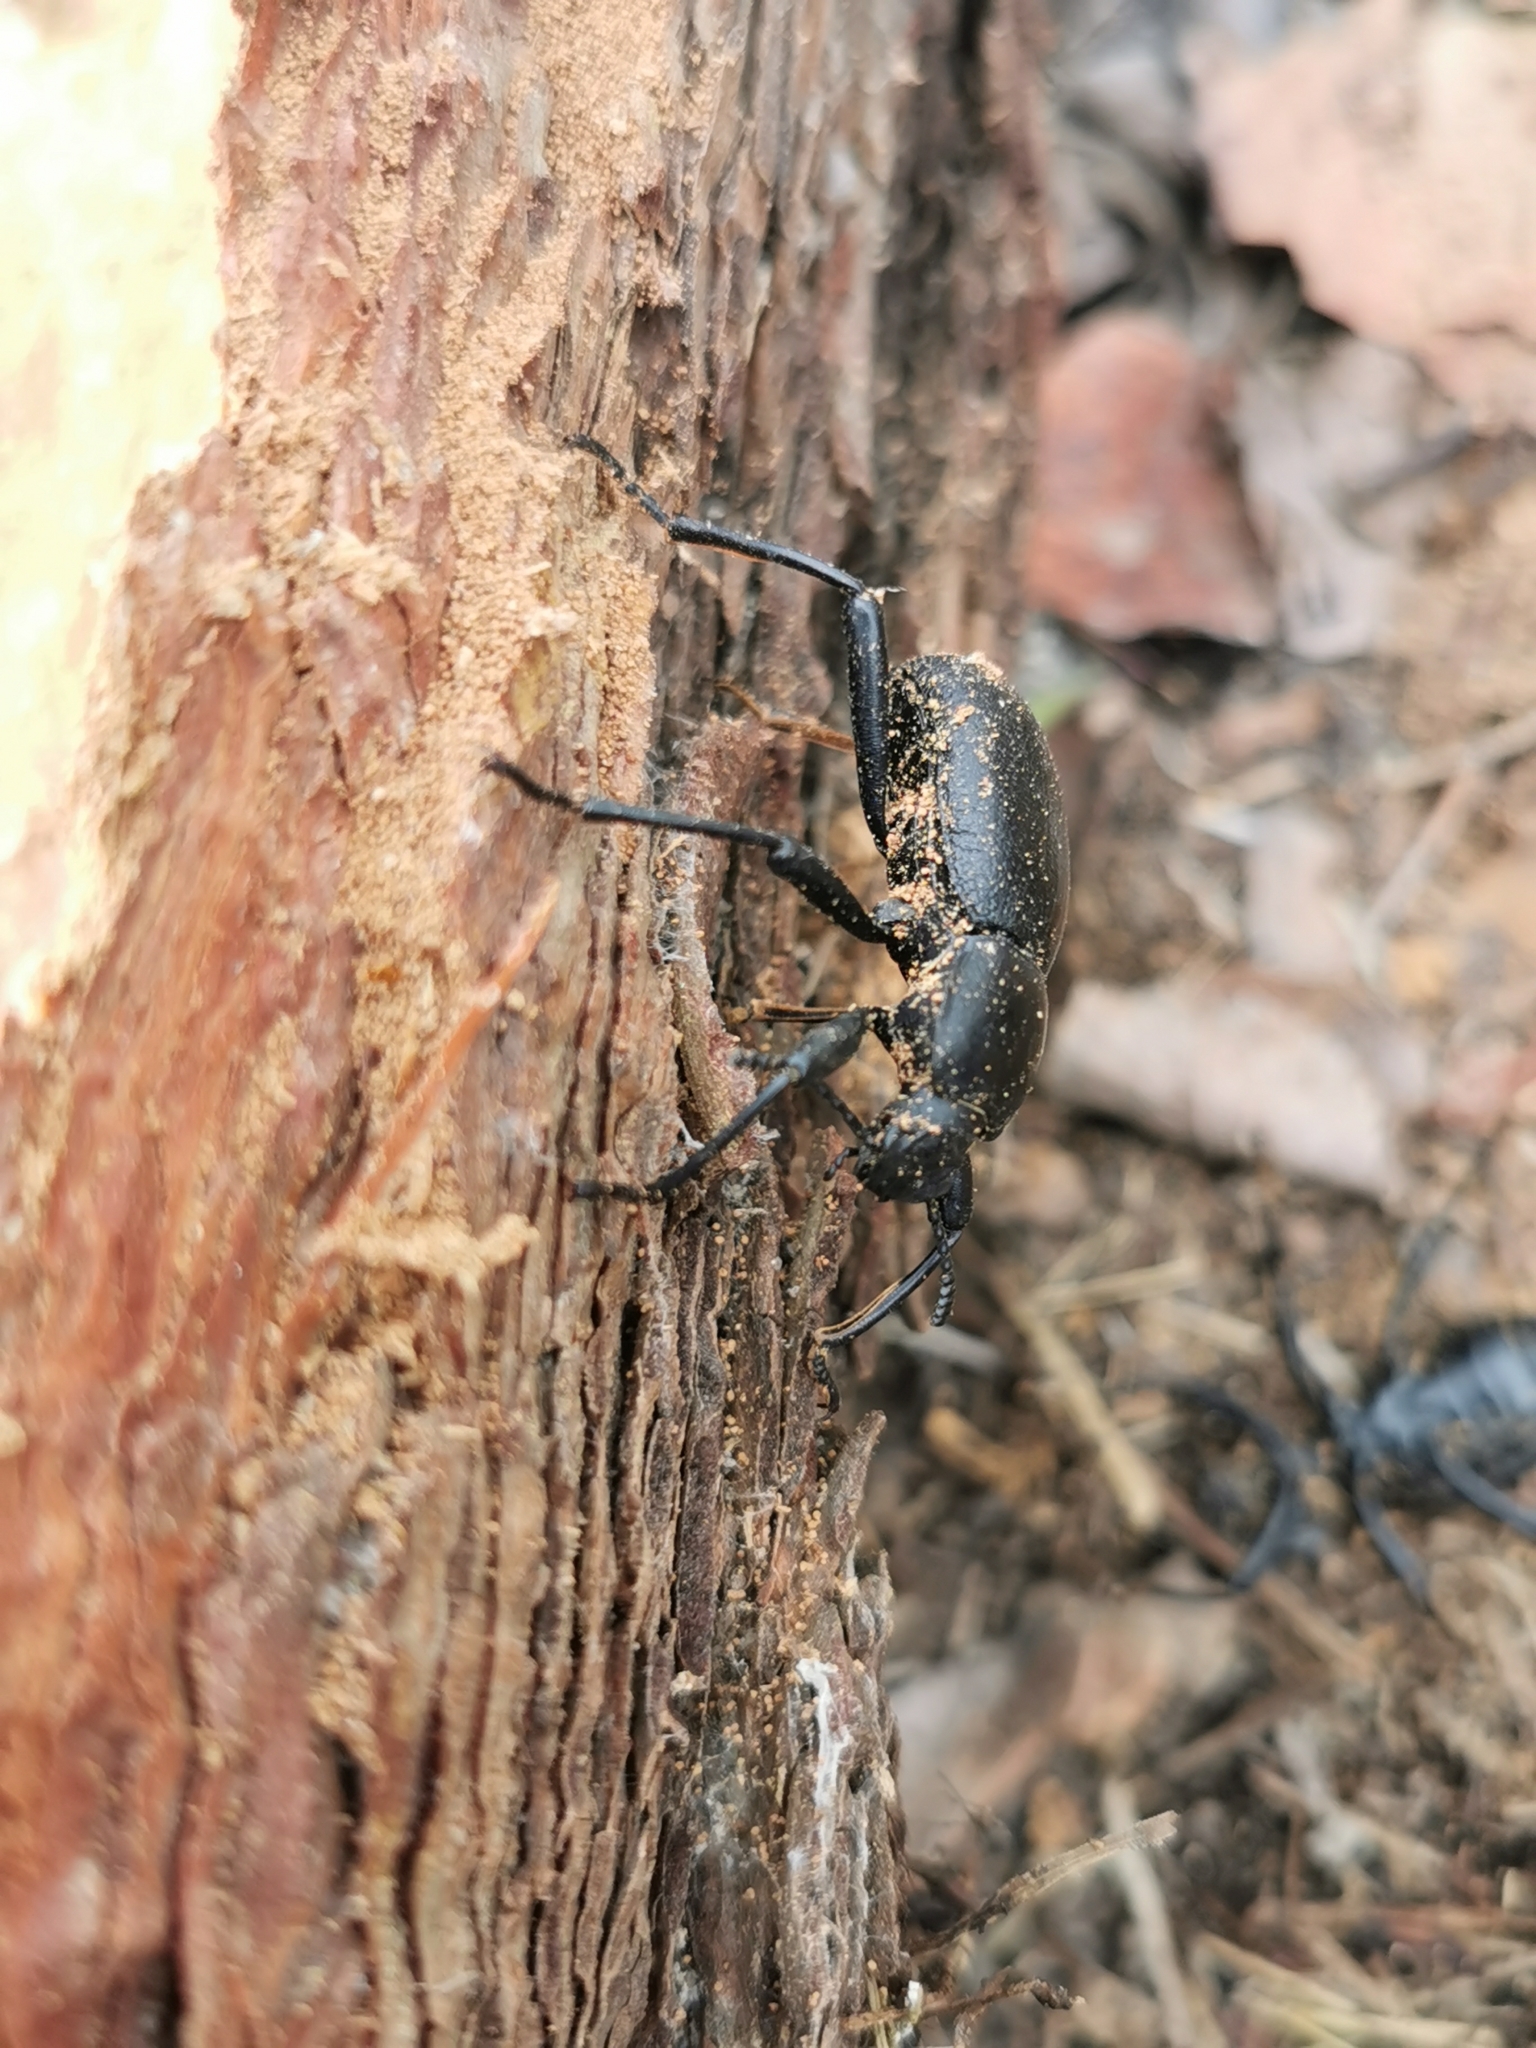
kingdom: Animalia
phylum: Arthropoda
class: Insecta
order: Coleoptera
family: Tenebrionidae
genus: Coelocnemis
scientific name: Coelocnemis dilaticollis
